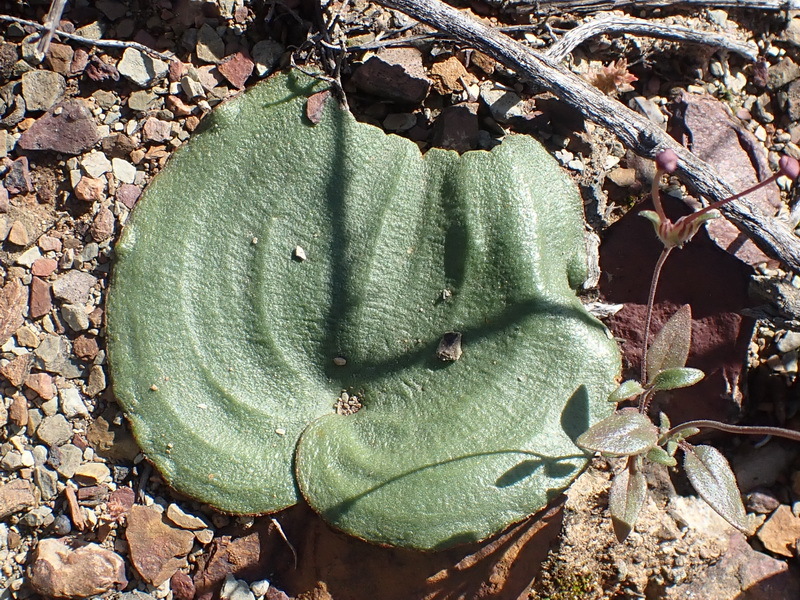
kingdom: Plantae
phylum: Tracheophyta
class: Liliopsida
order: Asparagales
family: Asparagaceae
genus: Eriospermum
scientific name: Eriospermum zeyheri
